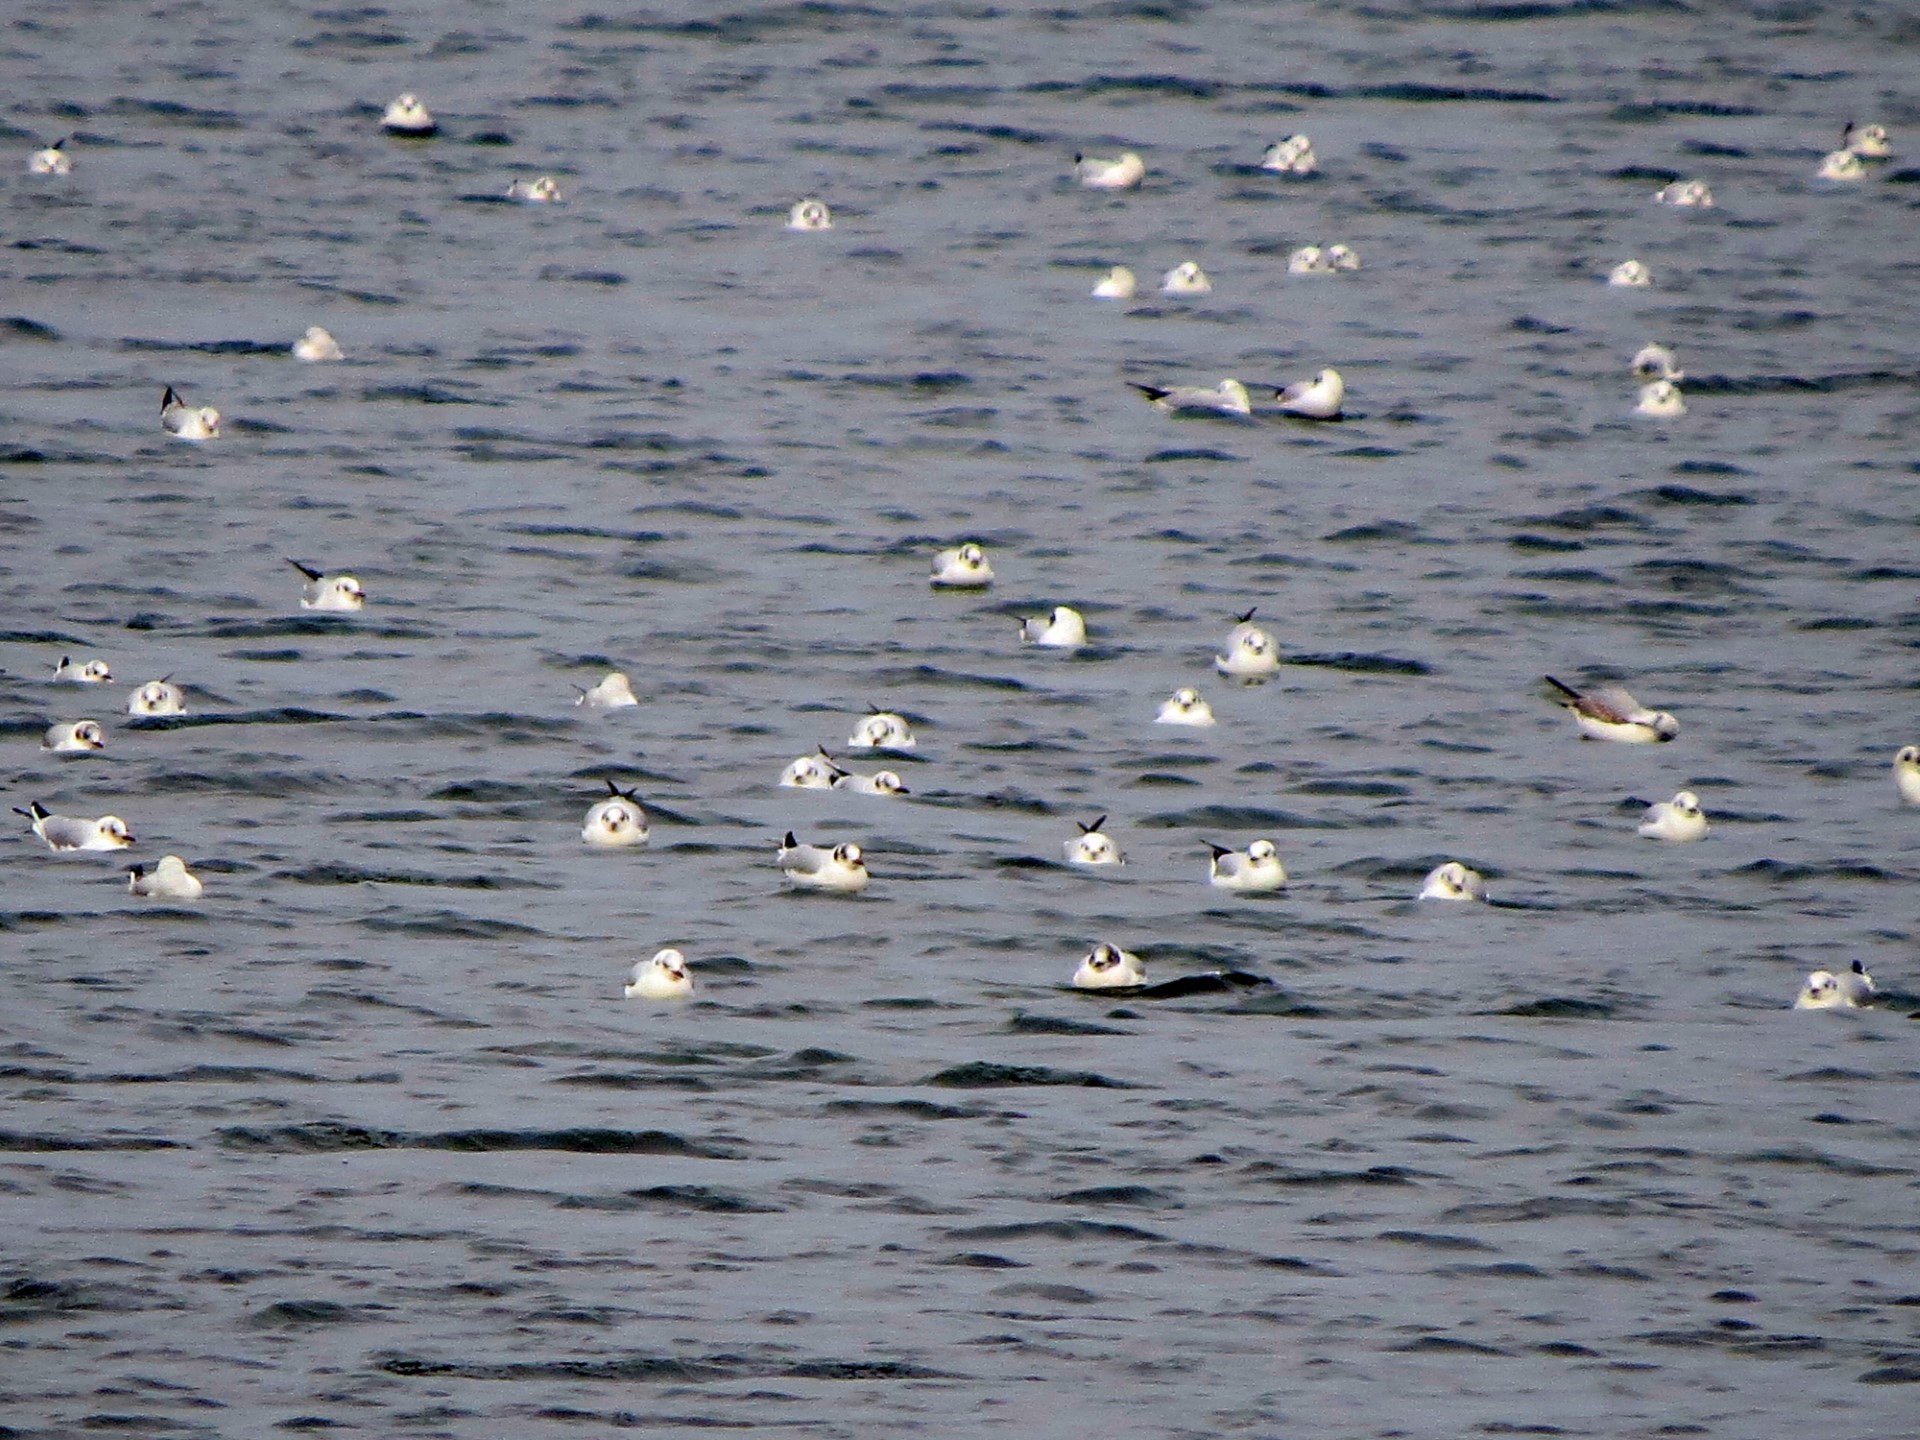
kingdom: Animalia
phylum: Chordata
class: Aves
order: Charadriiformes
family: Laridae
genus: Chroicocephalus
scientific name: Chroicocephalus ridibundus
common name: Black-headed gull
